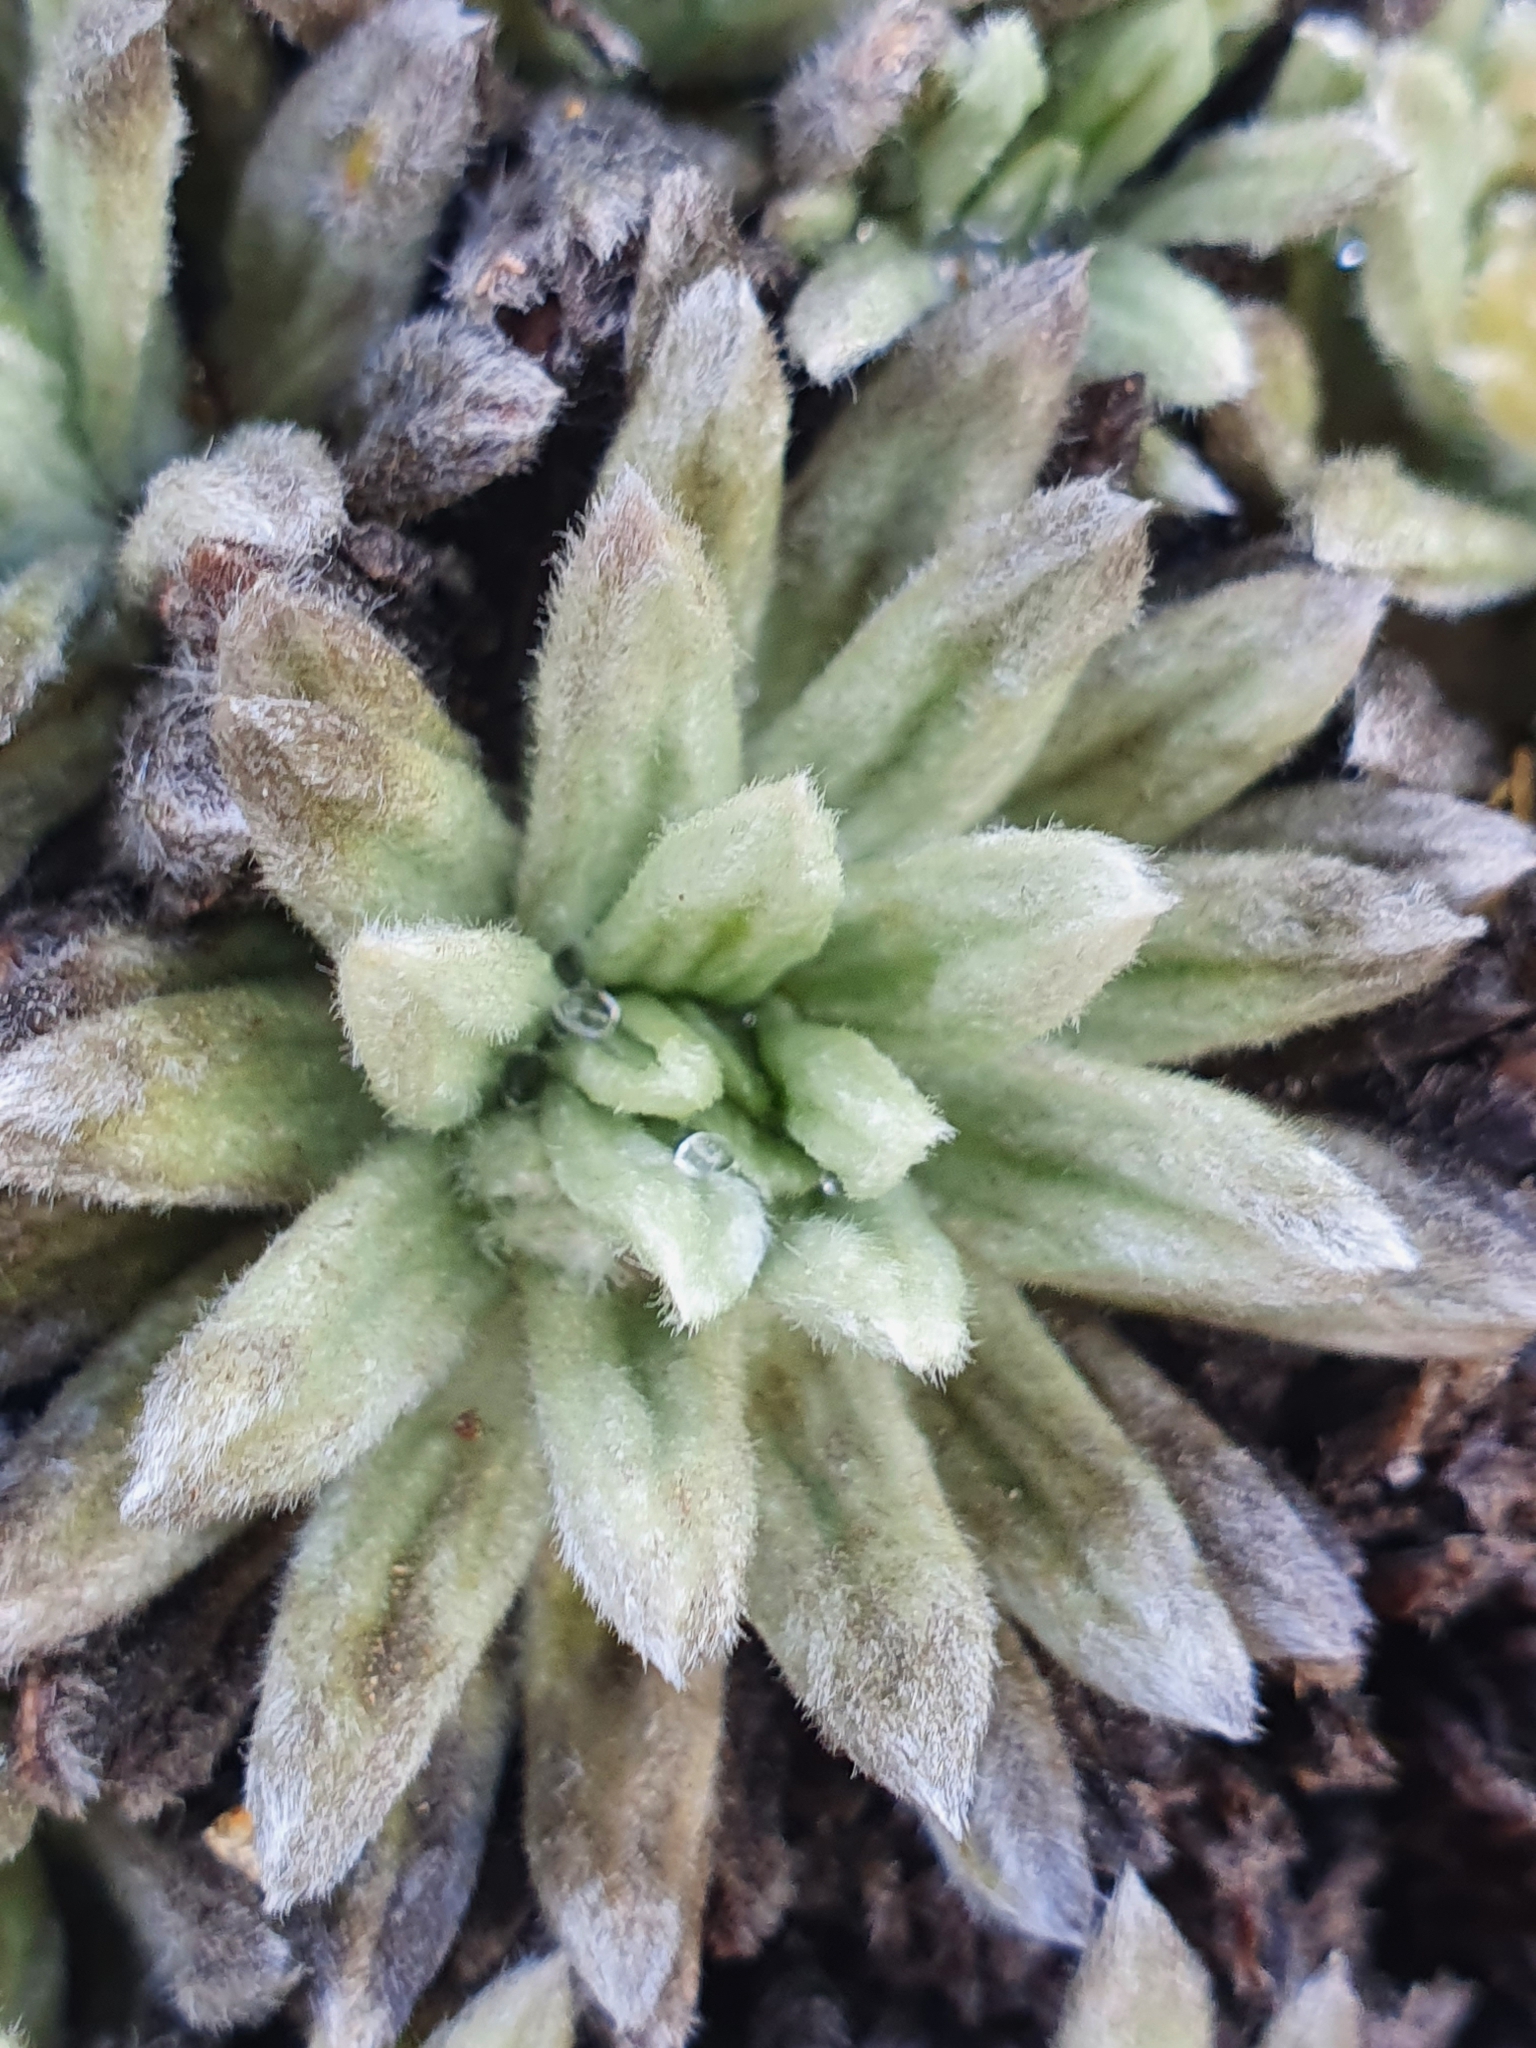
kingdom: Plantae
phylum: Tracheophyta
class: Magnoliopsida
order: Asterales
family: Asteraceae
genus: Celmisia
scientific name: Celmisia macmahonii
